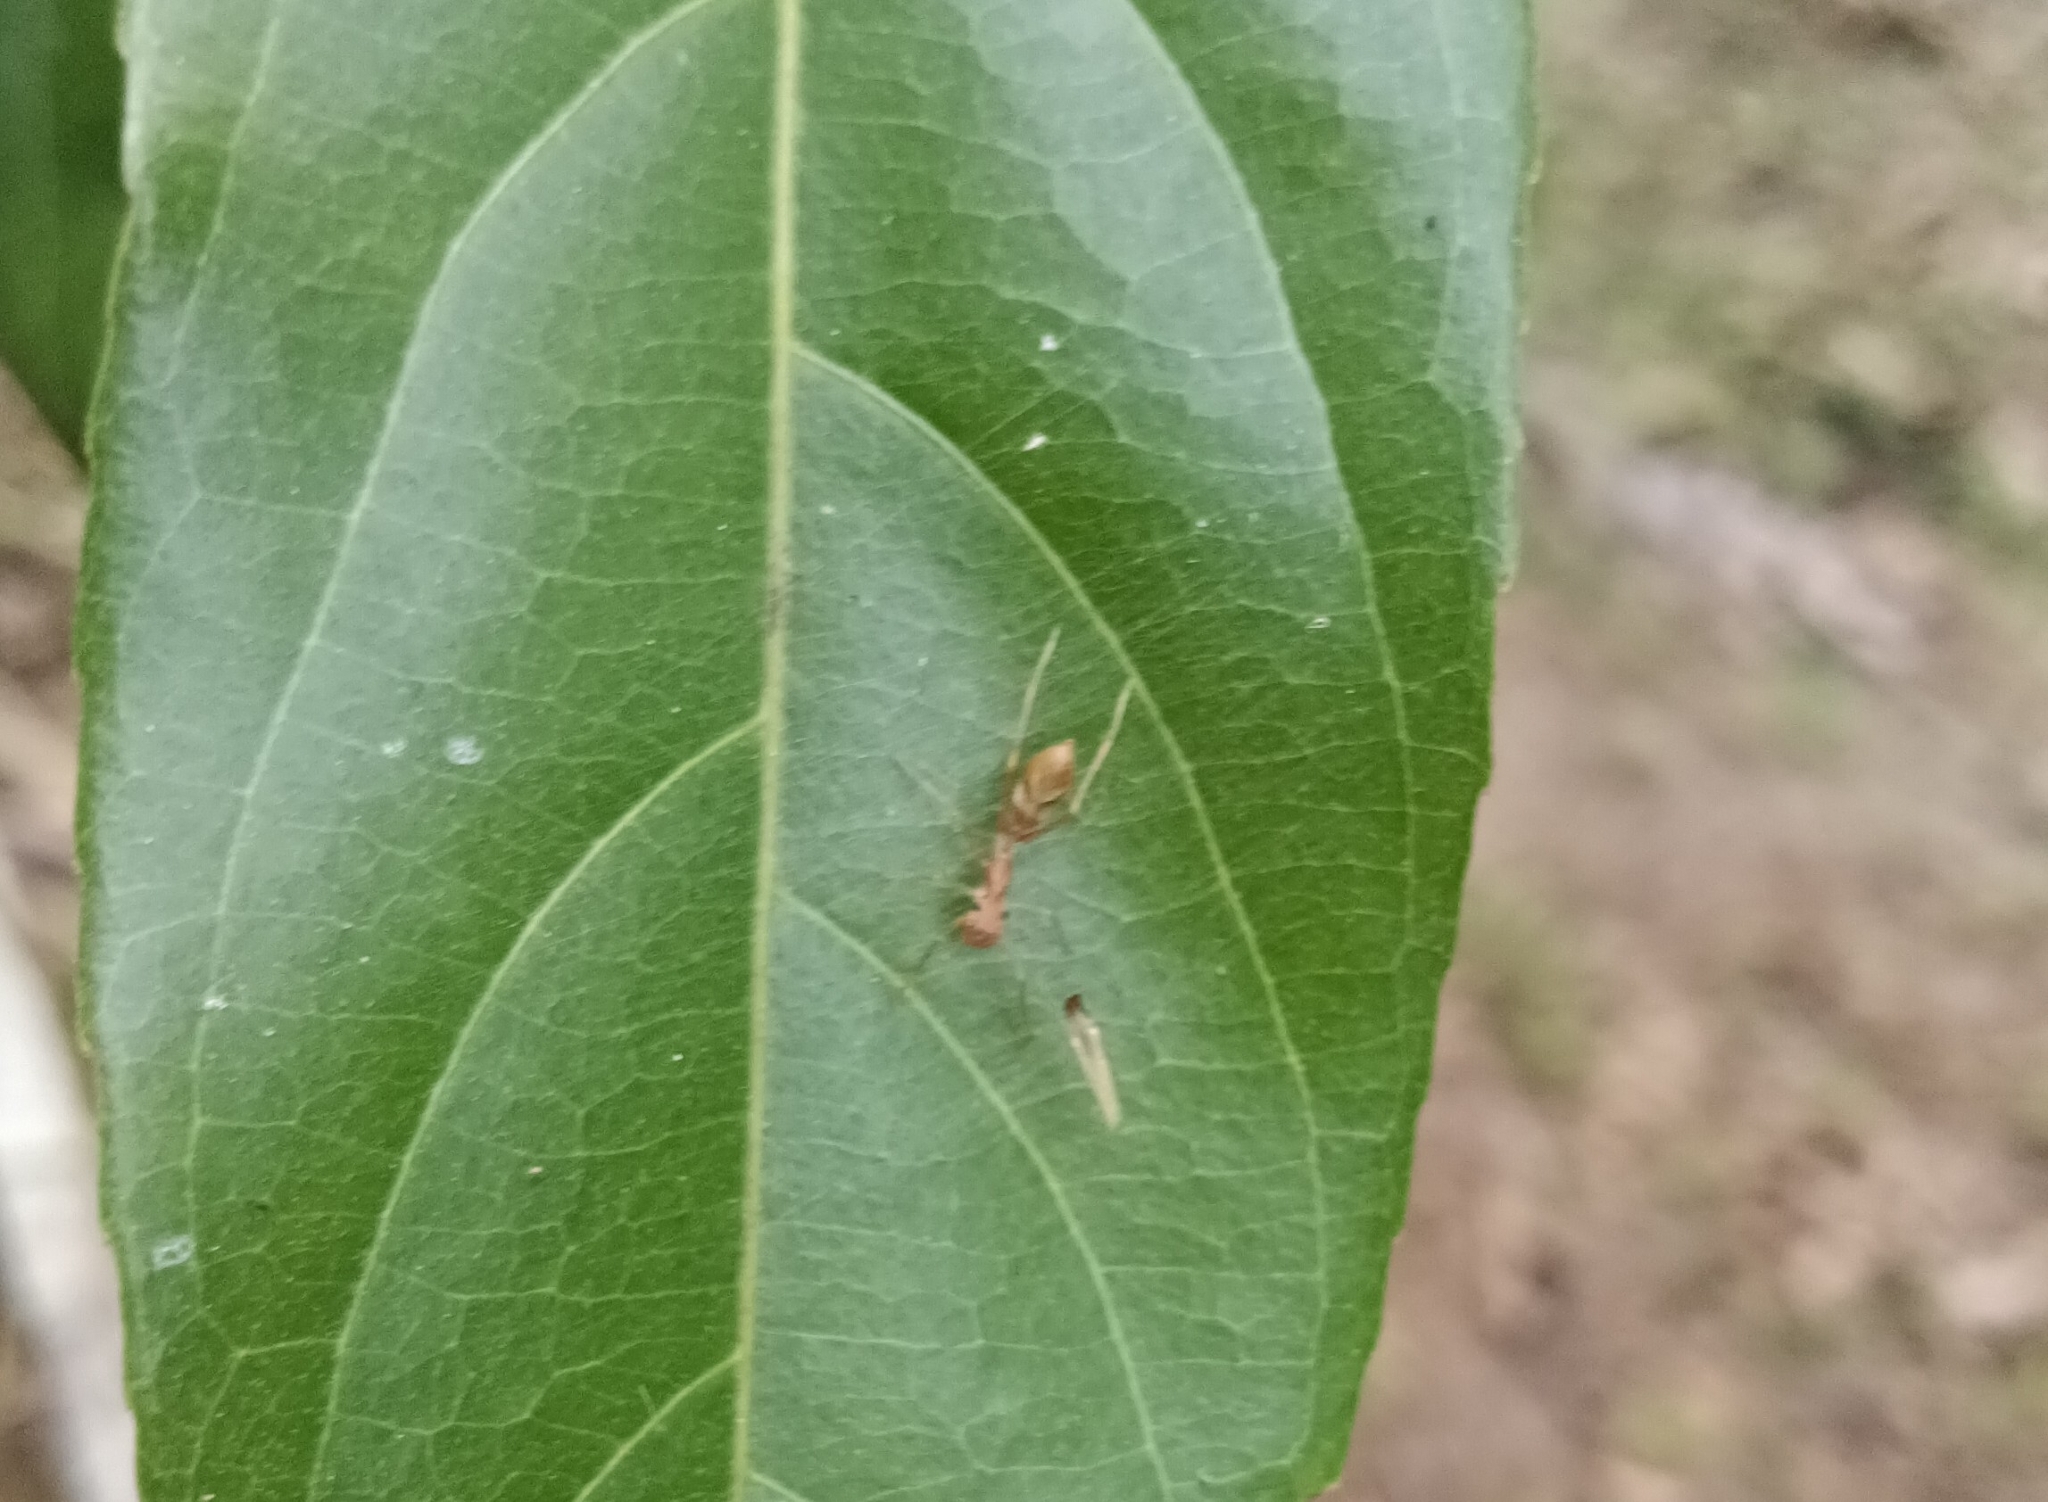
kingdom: Animalia
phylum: Arthropoda
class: Arachnida
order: Araneae
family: Salticidae
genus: Myrmaplata
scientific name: Myrmaplata plataleoides
